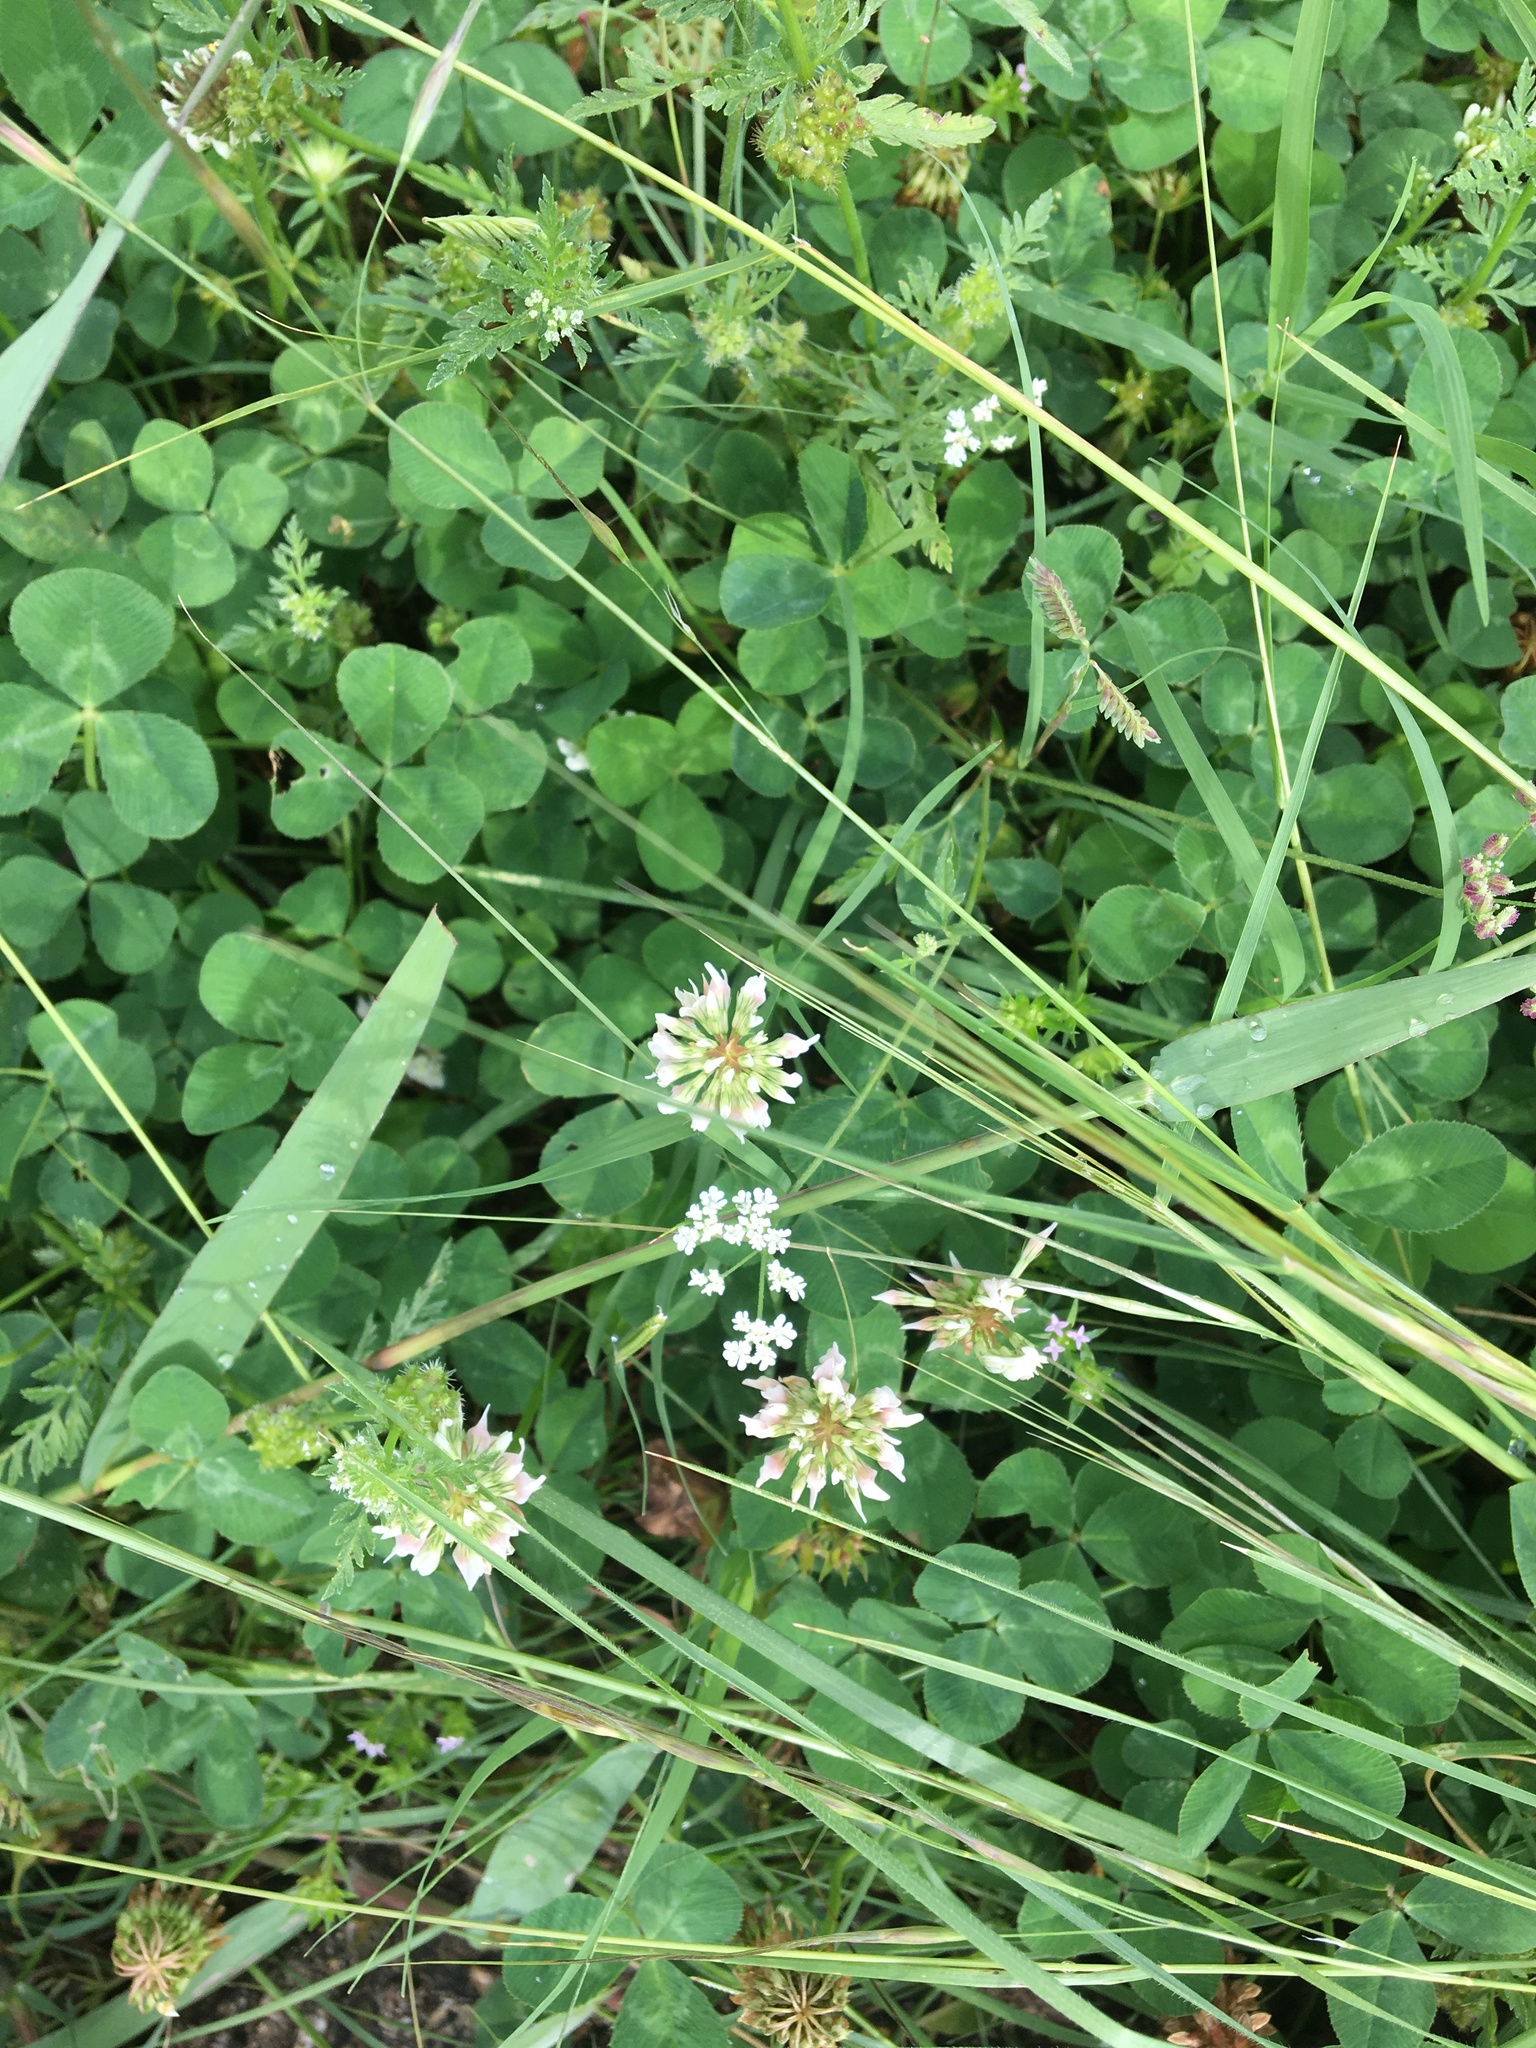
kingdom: Plantae
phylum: Tracheophyta
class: Magnoliopsida
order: Fabales
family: Fabaceae
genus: Trifolium
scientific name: Trifolium repens
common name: White clover
